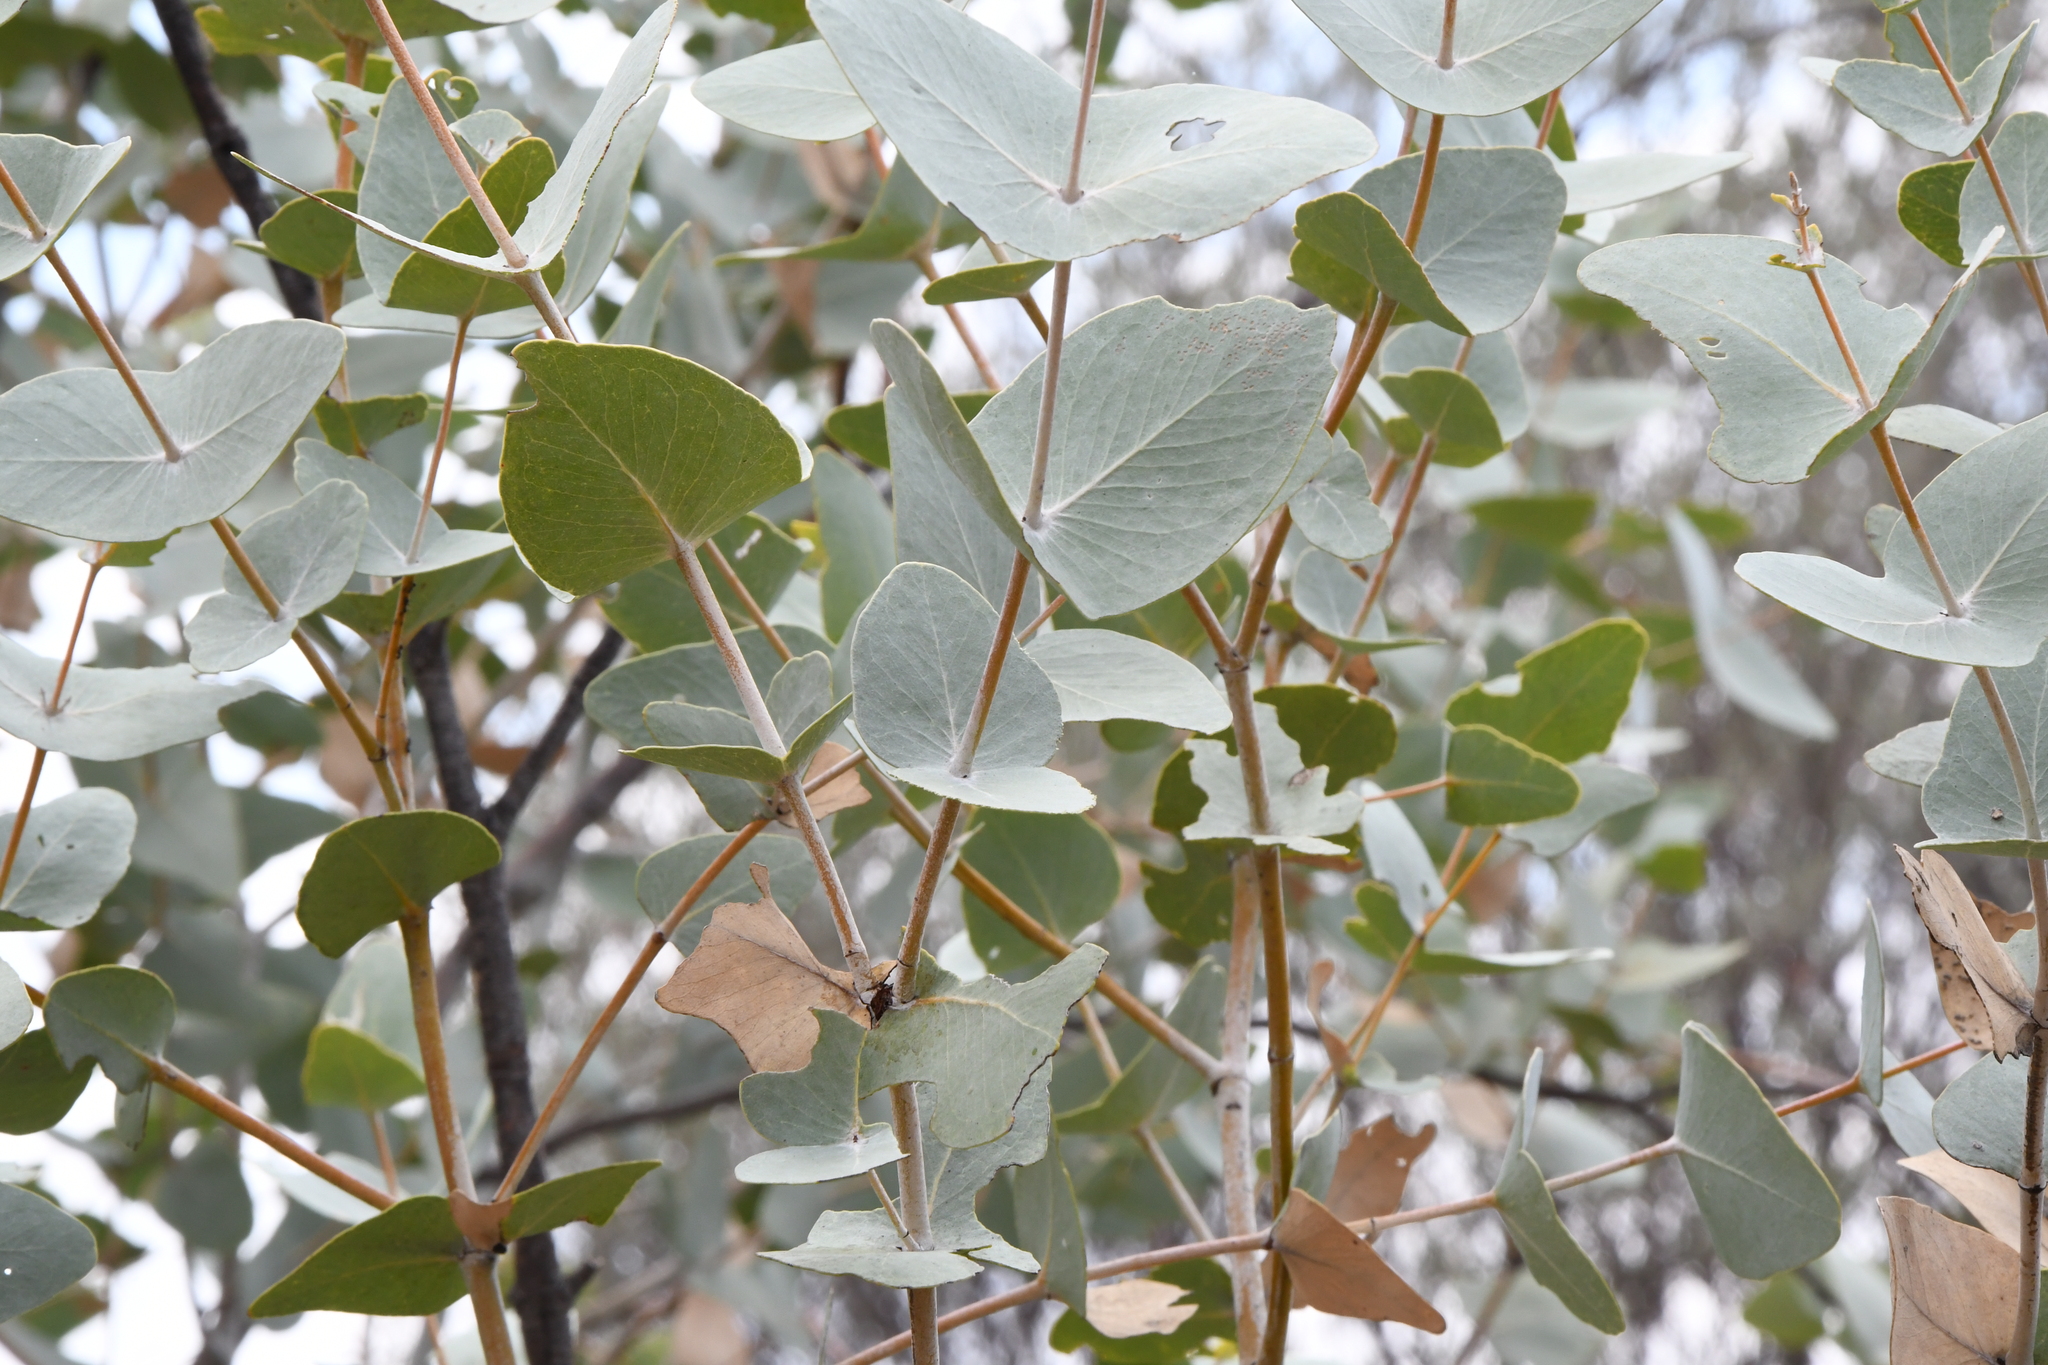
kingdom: Plantae
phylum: Tracheophyta
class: Magnoliopsida
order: Myrtales
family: Myrtaceae
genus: Eucalyptus
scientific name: Eucalyptus gamophylla
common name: Blue mallee
